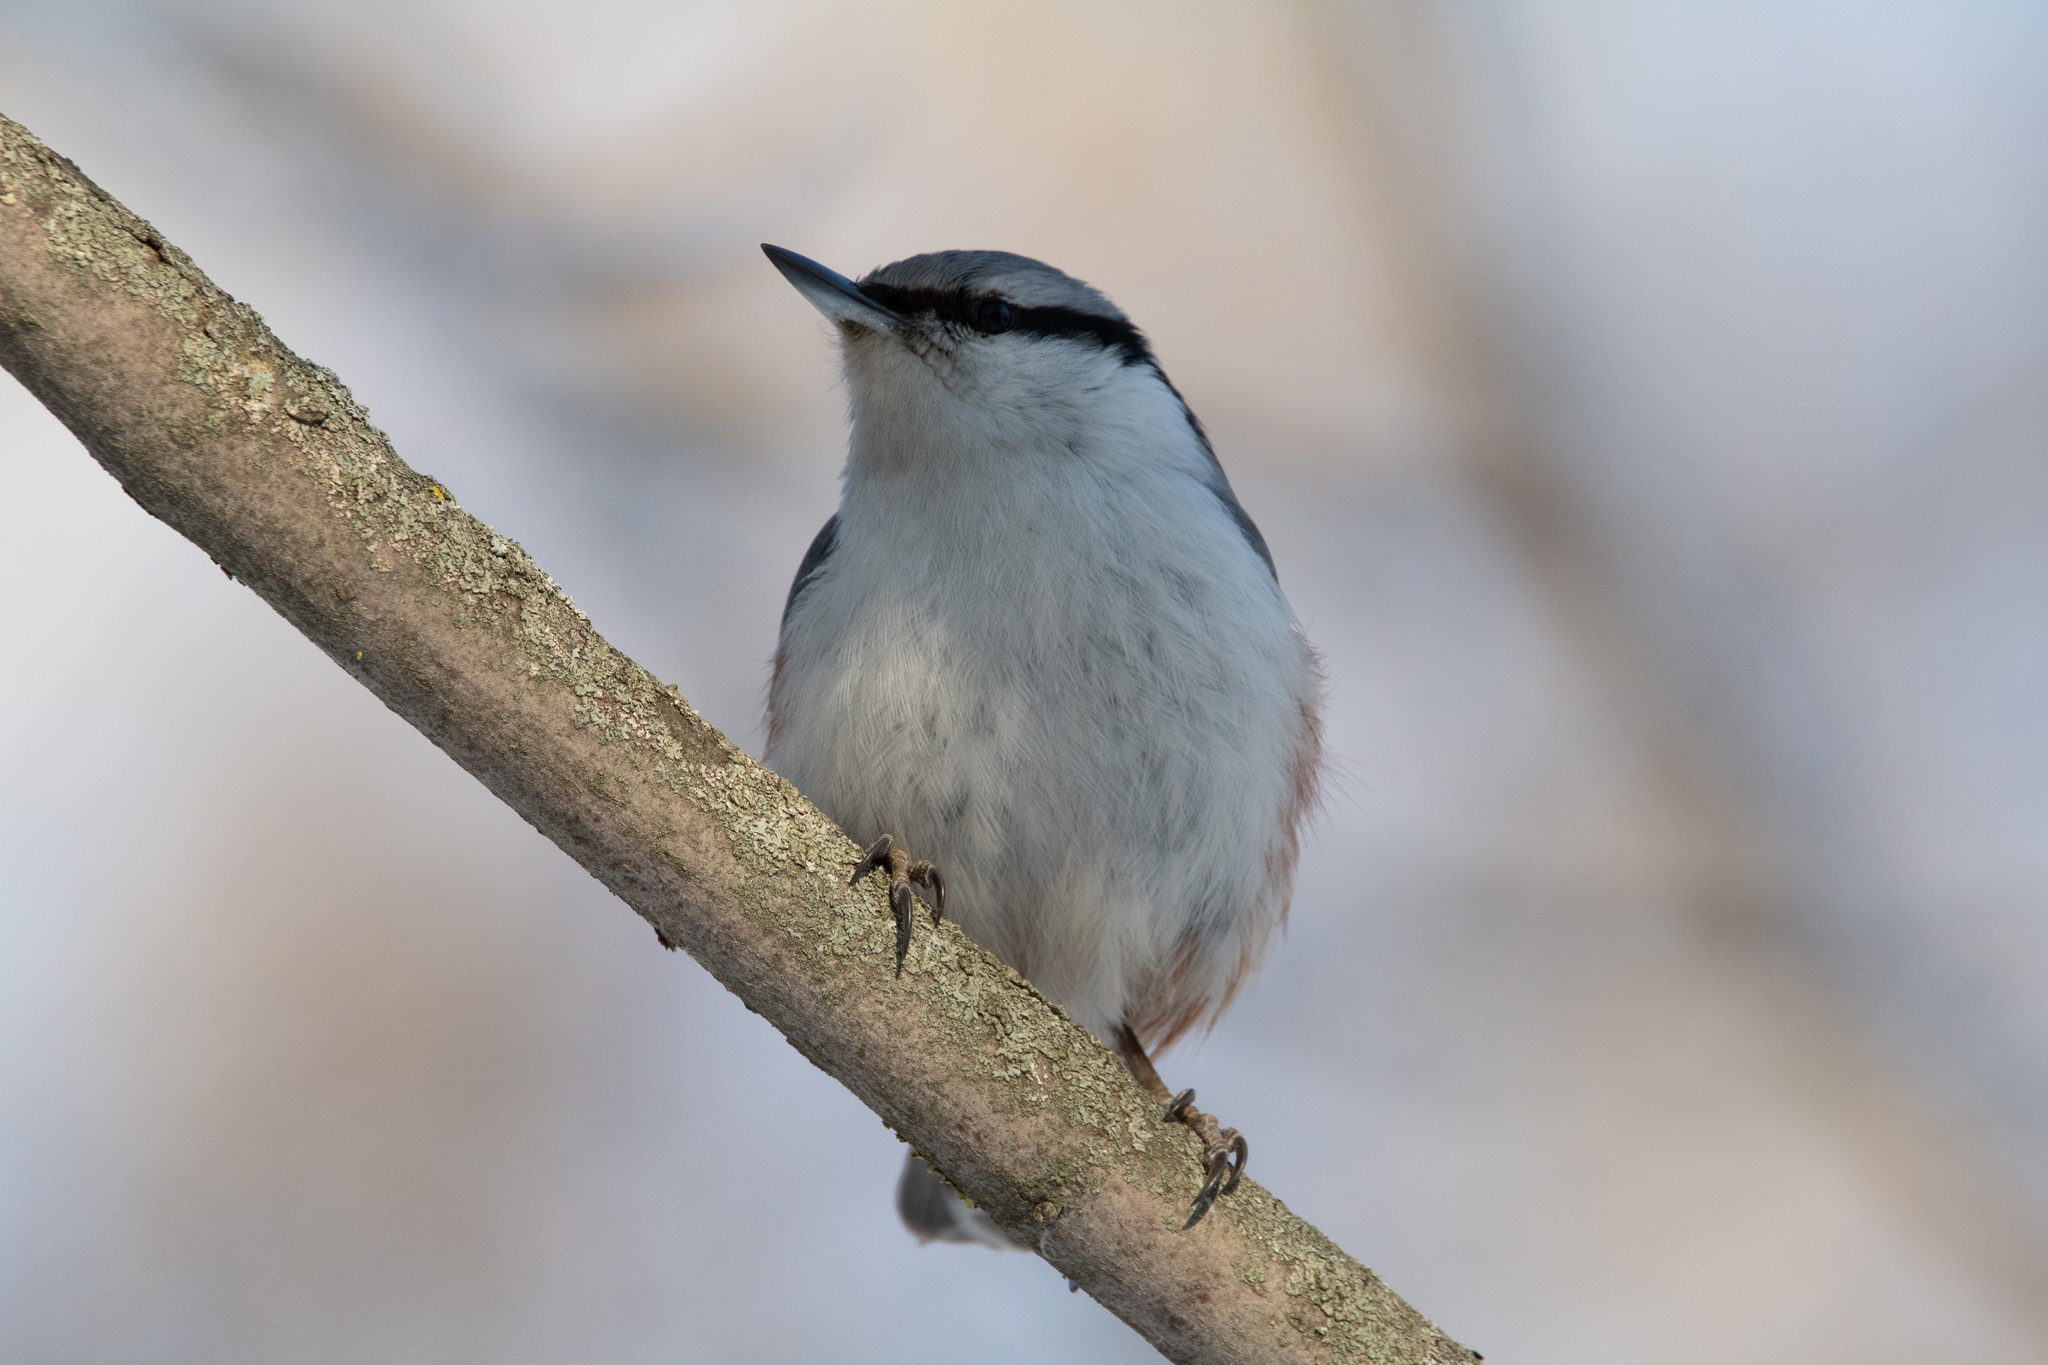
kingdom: Animalia
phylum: Chordata
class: Aves
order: Passeriformes
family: Sittidae
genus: Sitta
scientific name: Sitta europaea
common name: Eurasian nuthatch
